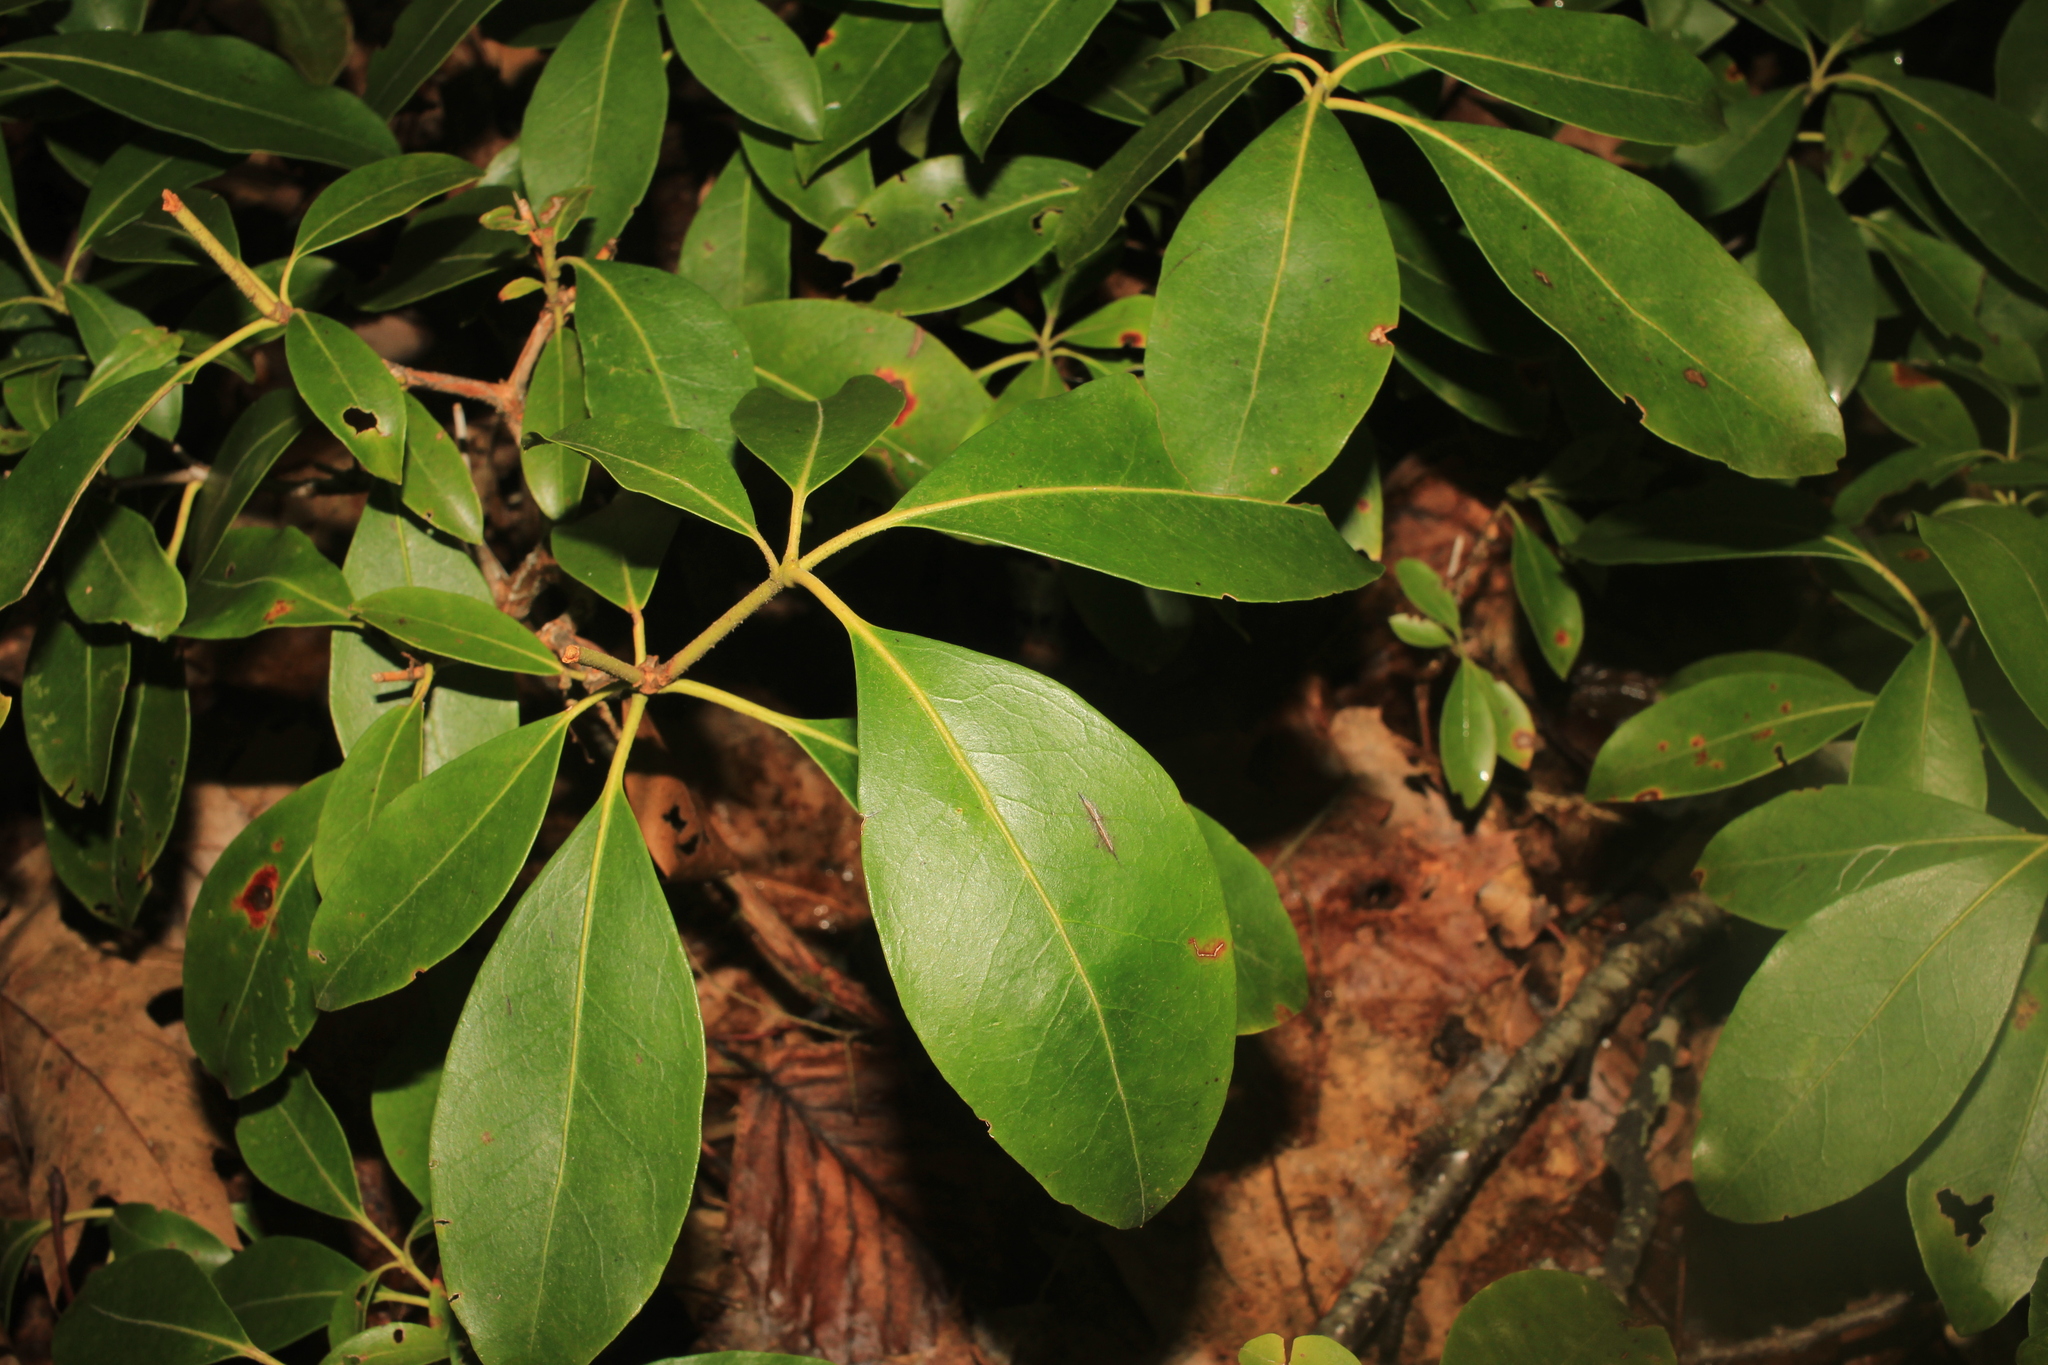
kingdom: Plantae
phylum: Tracheophyta
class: Magnoliopsida
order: Ericales
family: Ericaceae
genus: Kalmia
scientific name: Kalmia latifolia
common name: Mountain-laurel
